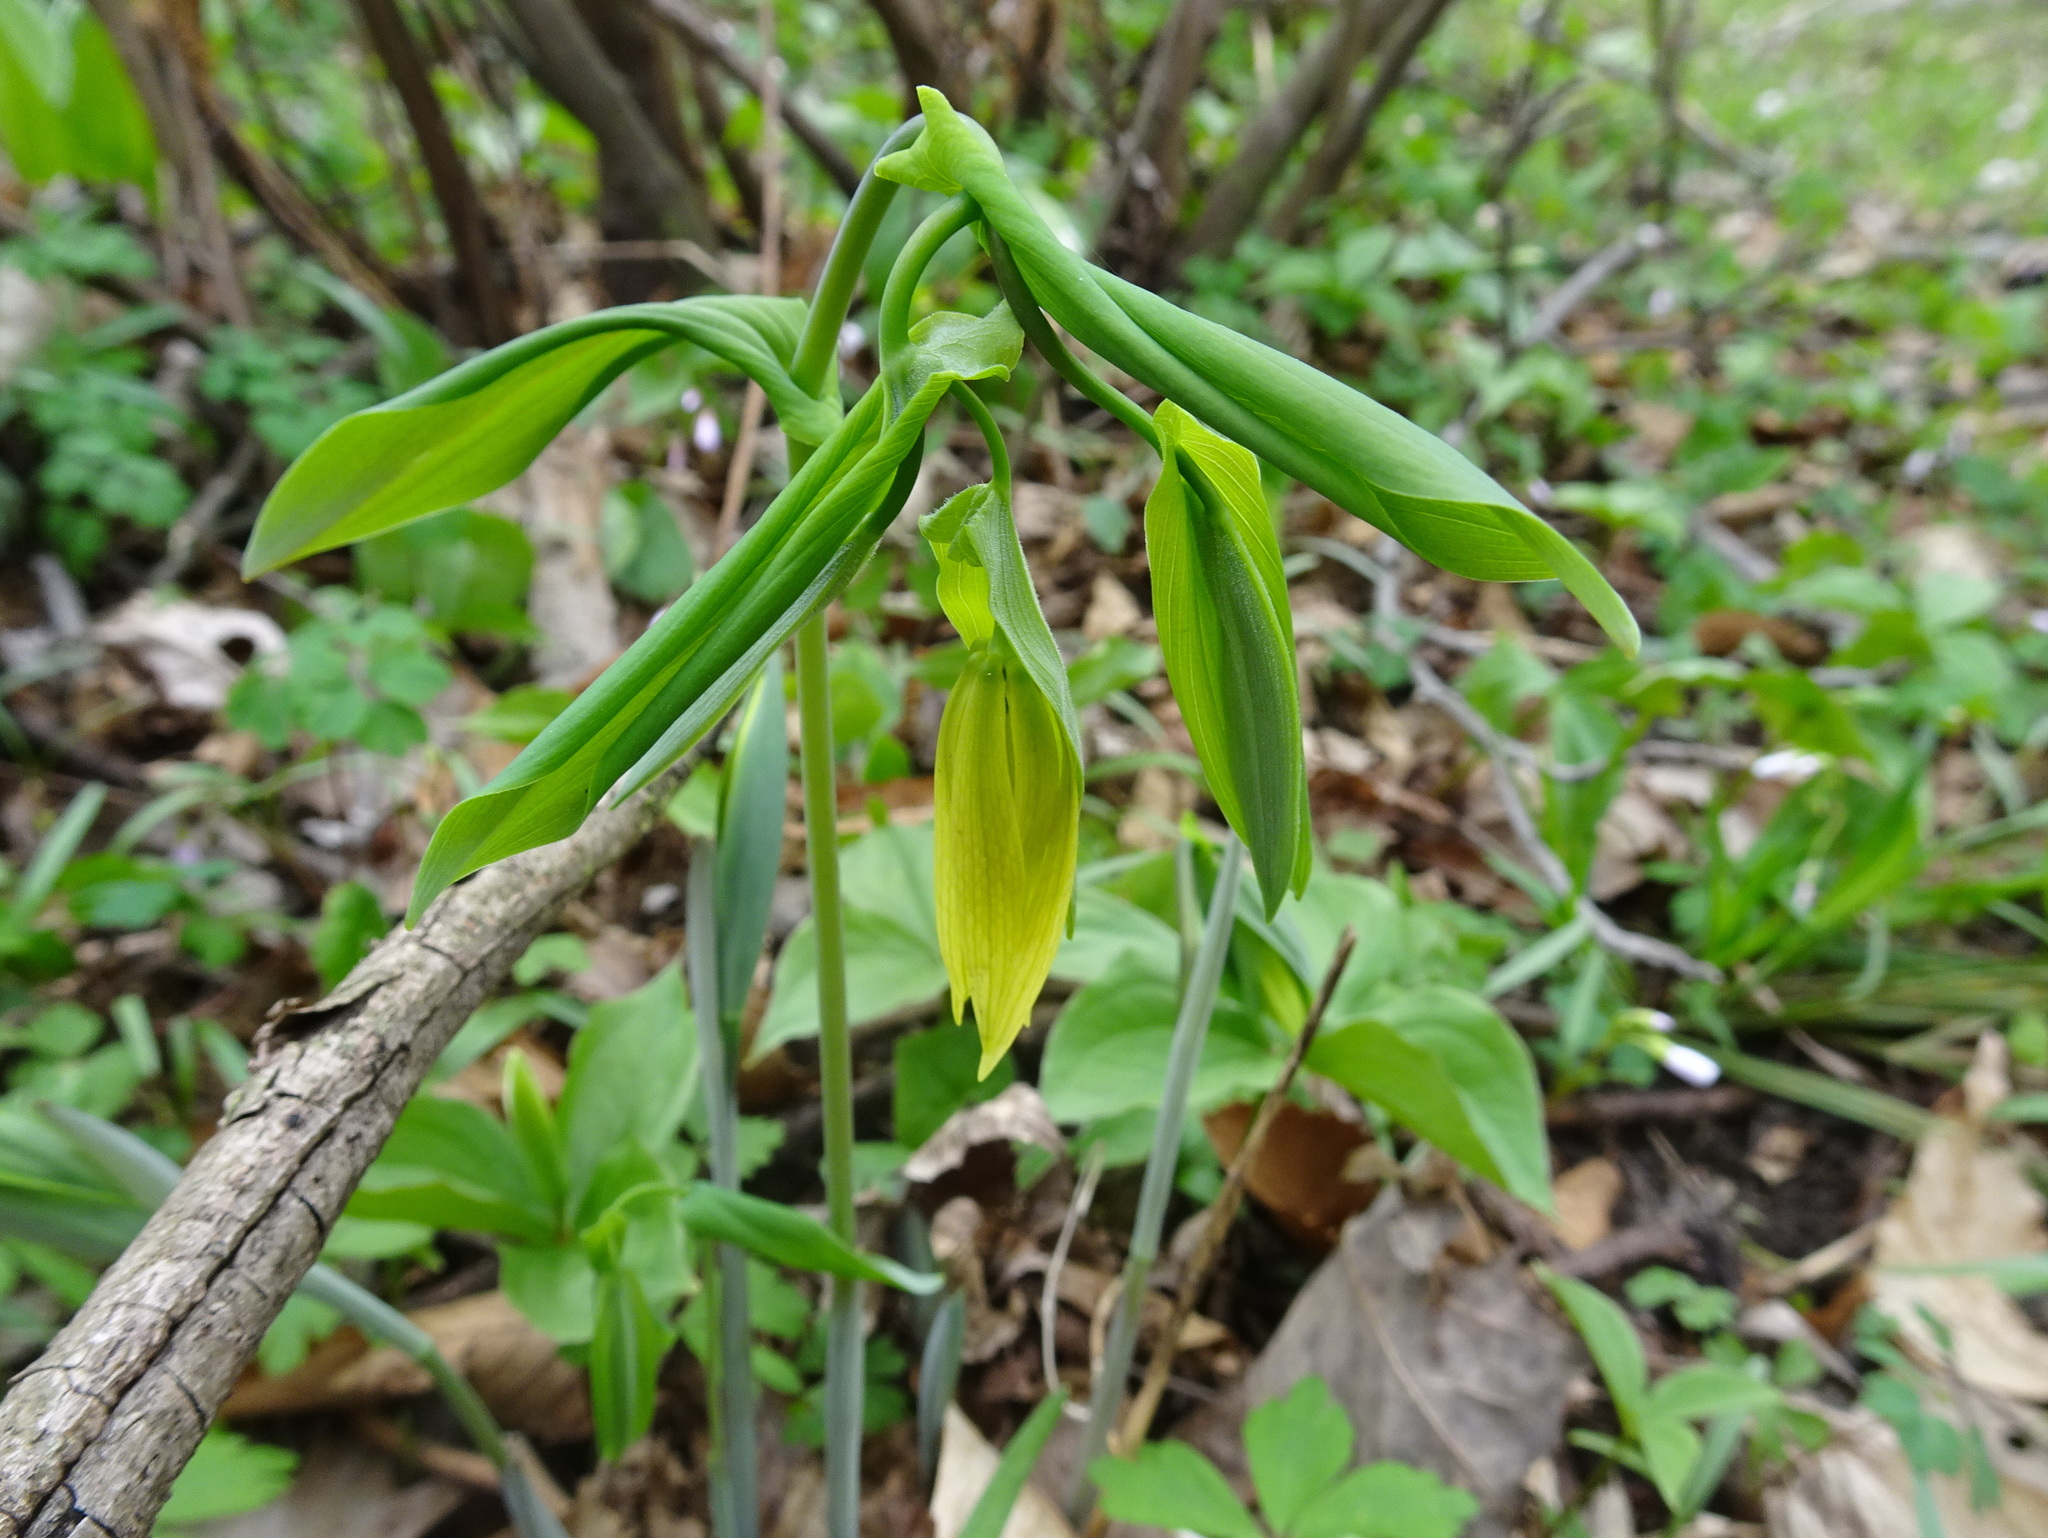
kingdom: Plantae
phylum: Tracheophyta
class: Liliopsida
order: Liliales
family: Colchicaceae
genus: Uvularia
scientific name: Uvularia grandiflora
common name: Bellwort
